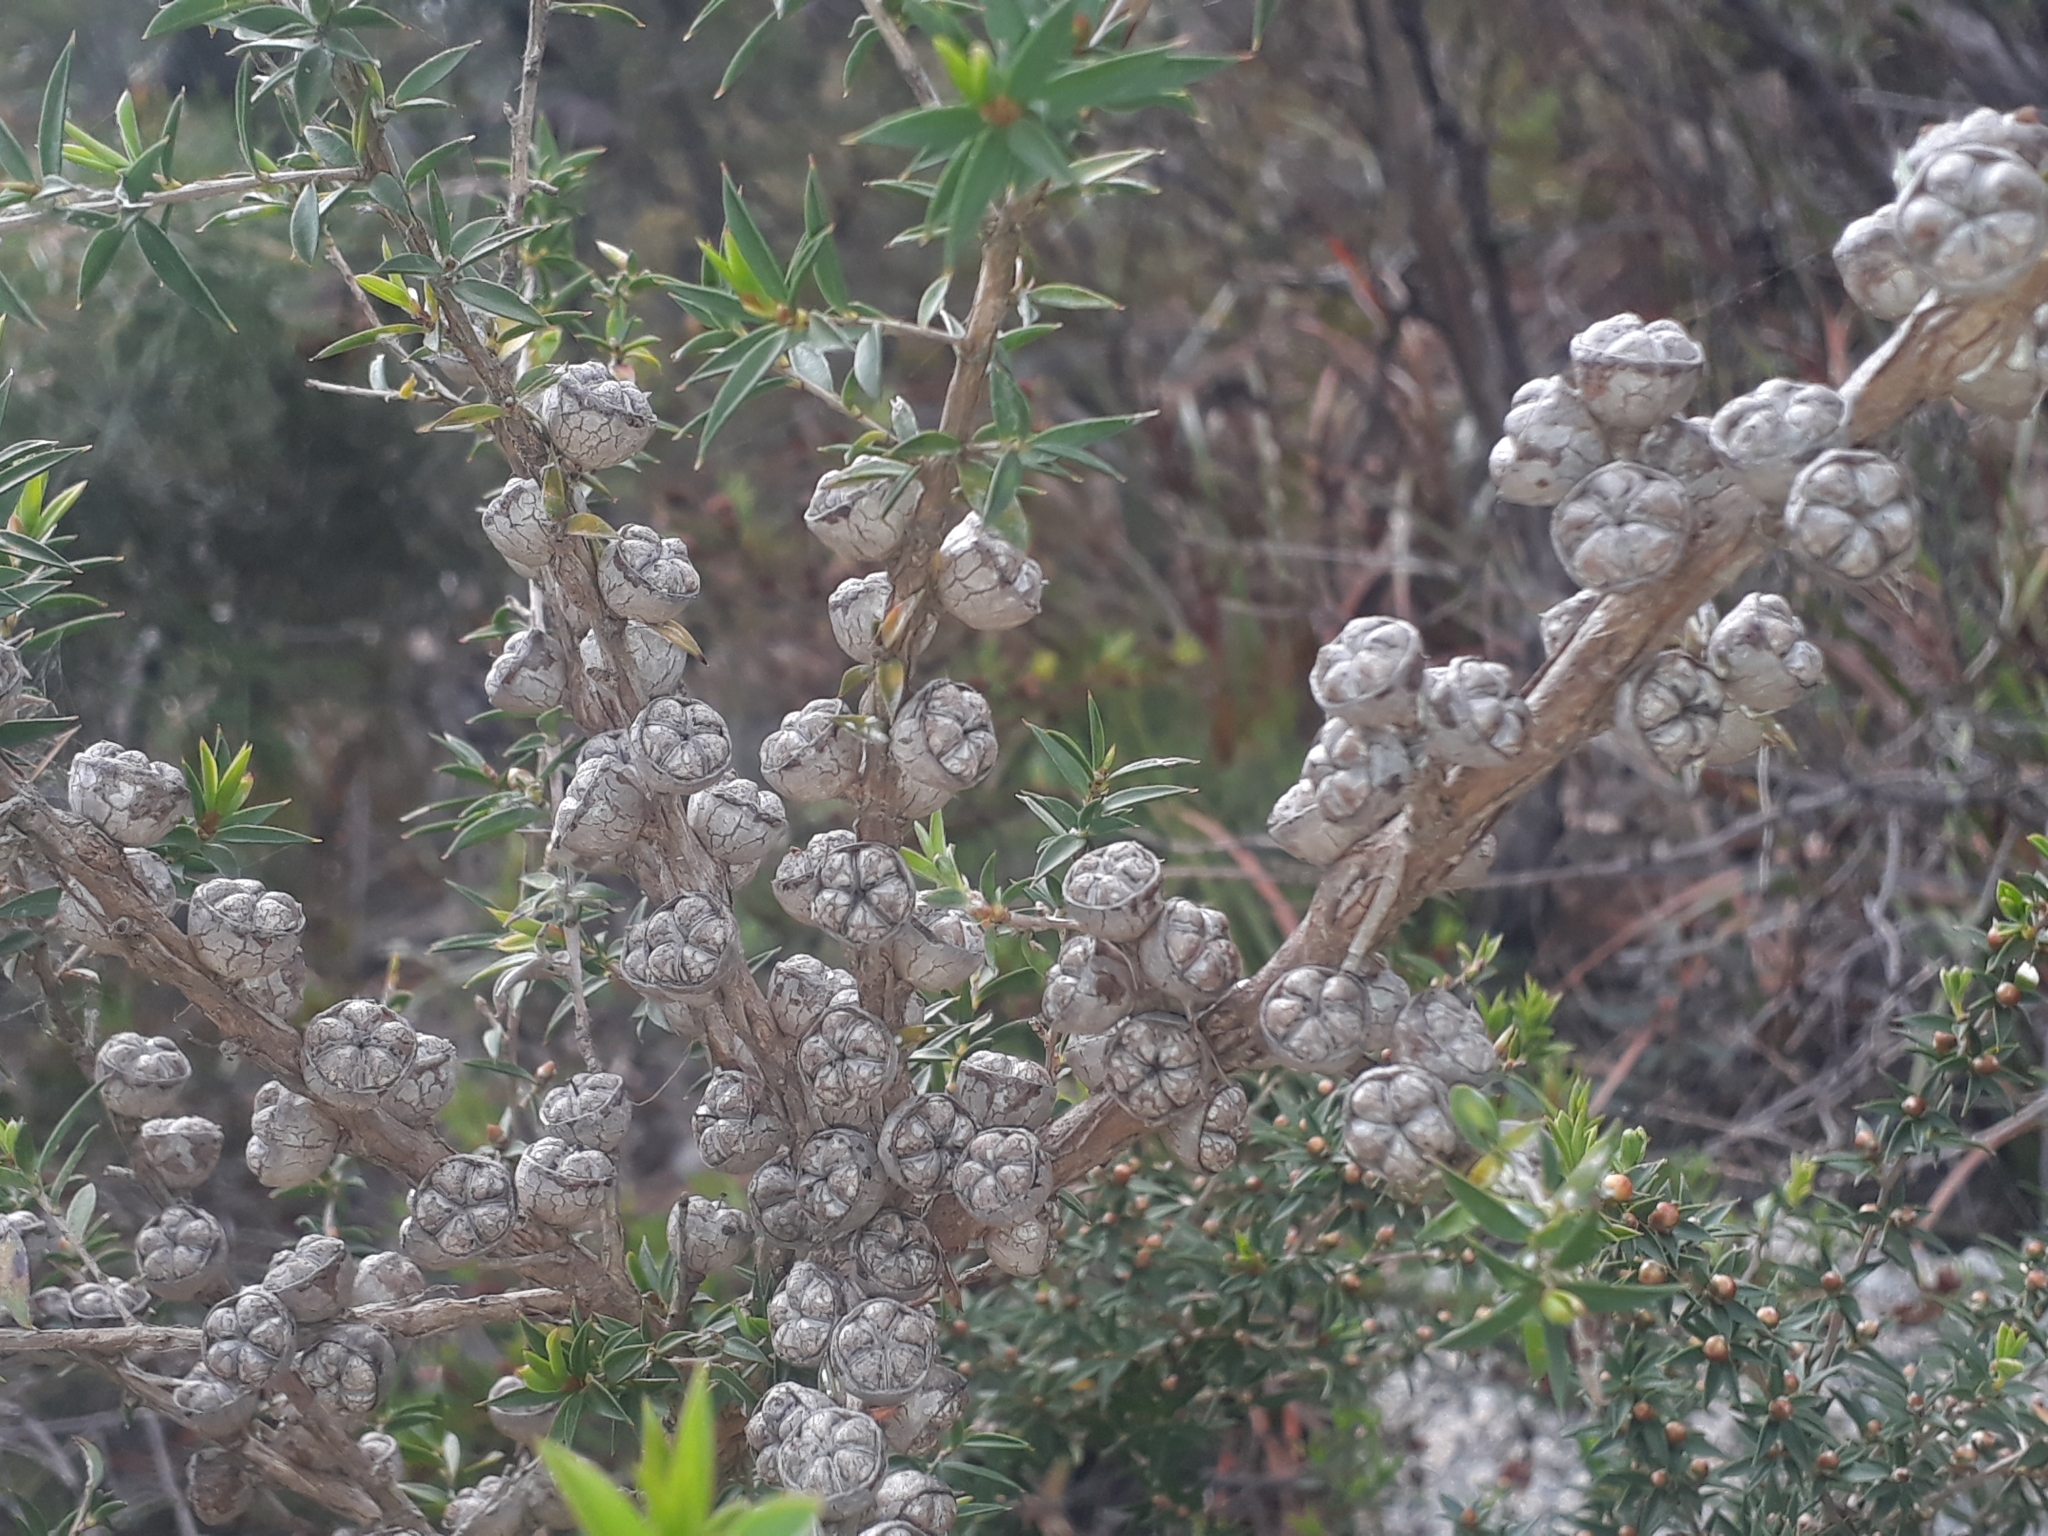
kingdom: Plantae
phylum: Tracheophyta
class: Magnoliopsida
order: Myrtales
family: Myrtaceae
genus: Leptospermum
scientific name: Leptospermum continentale
